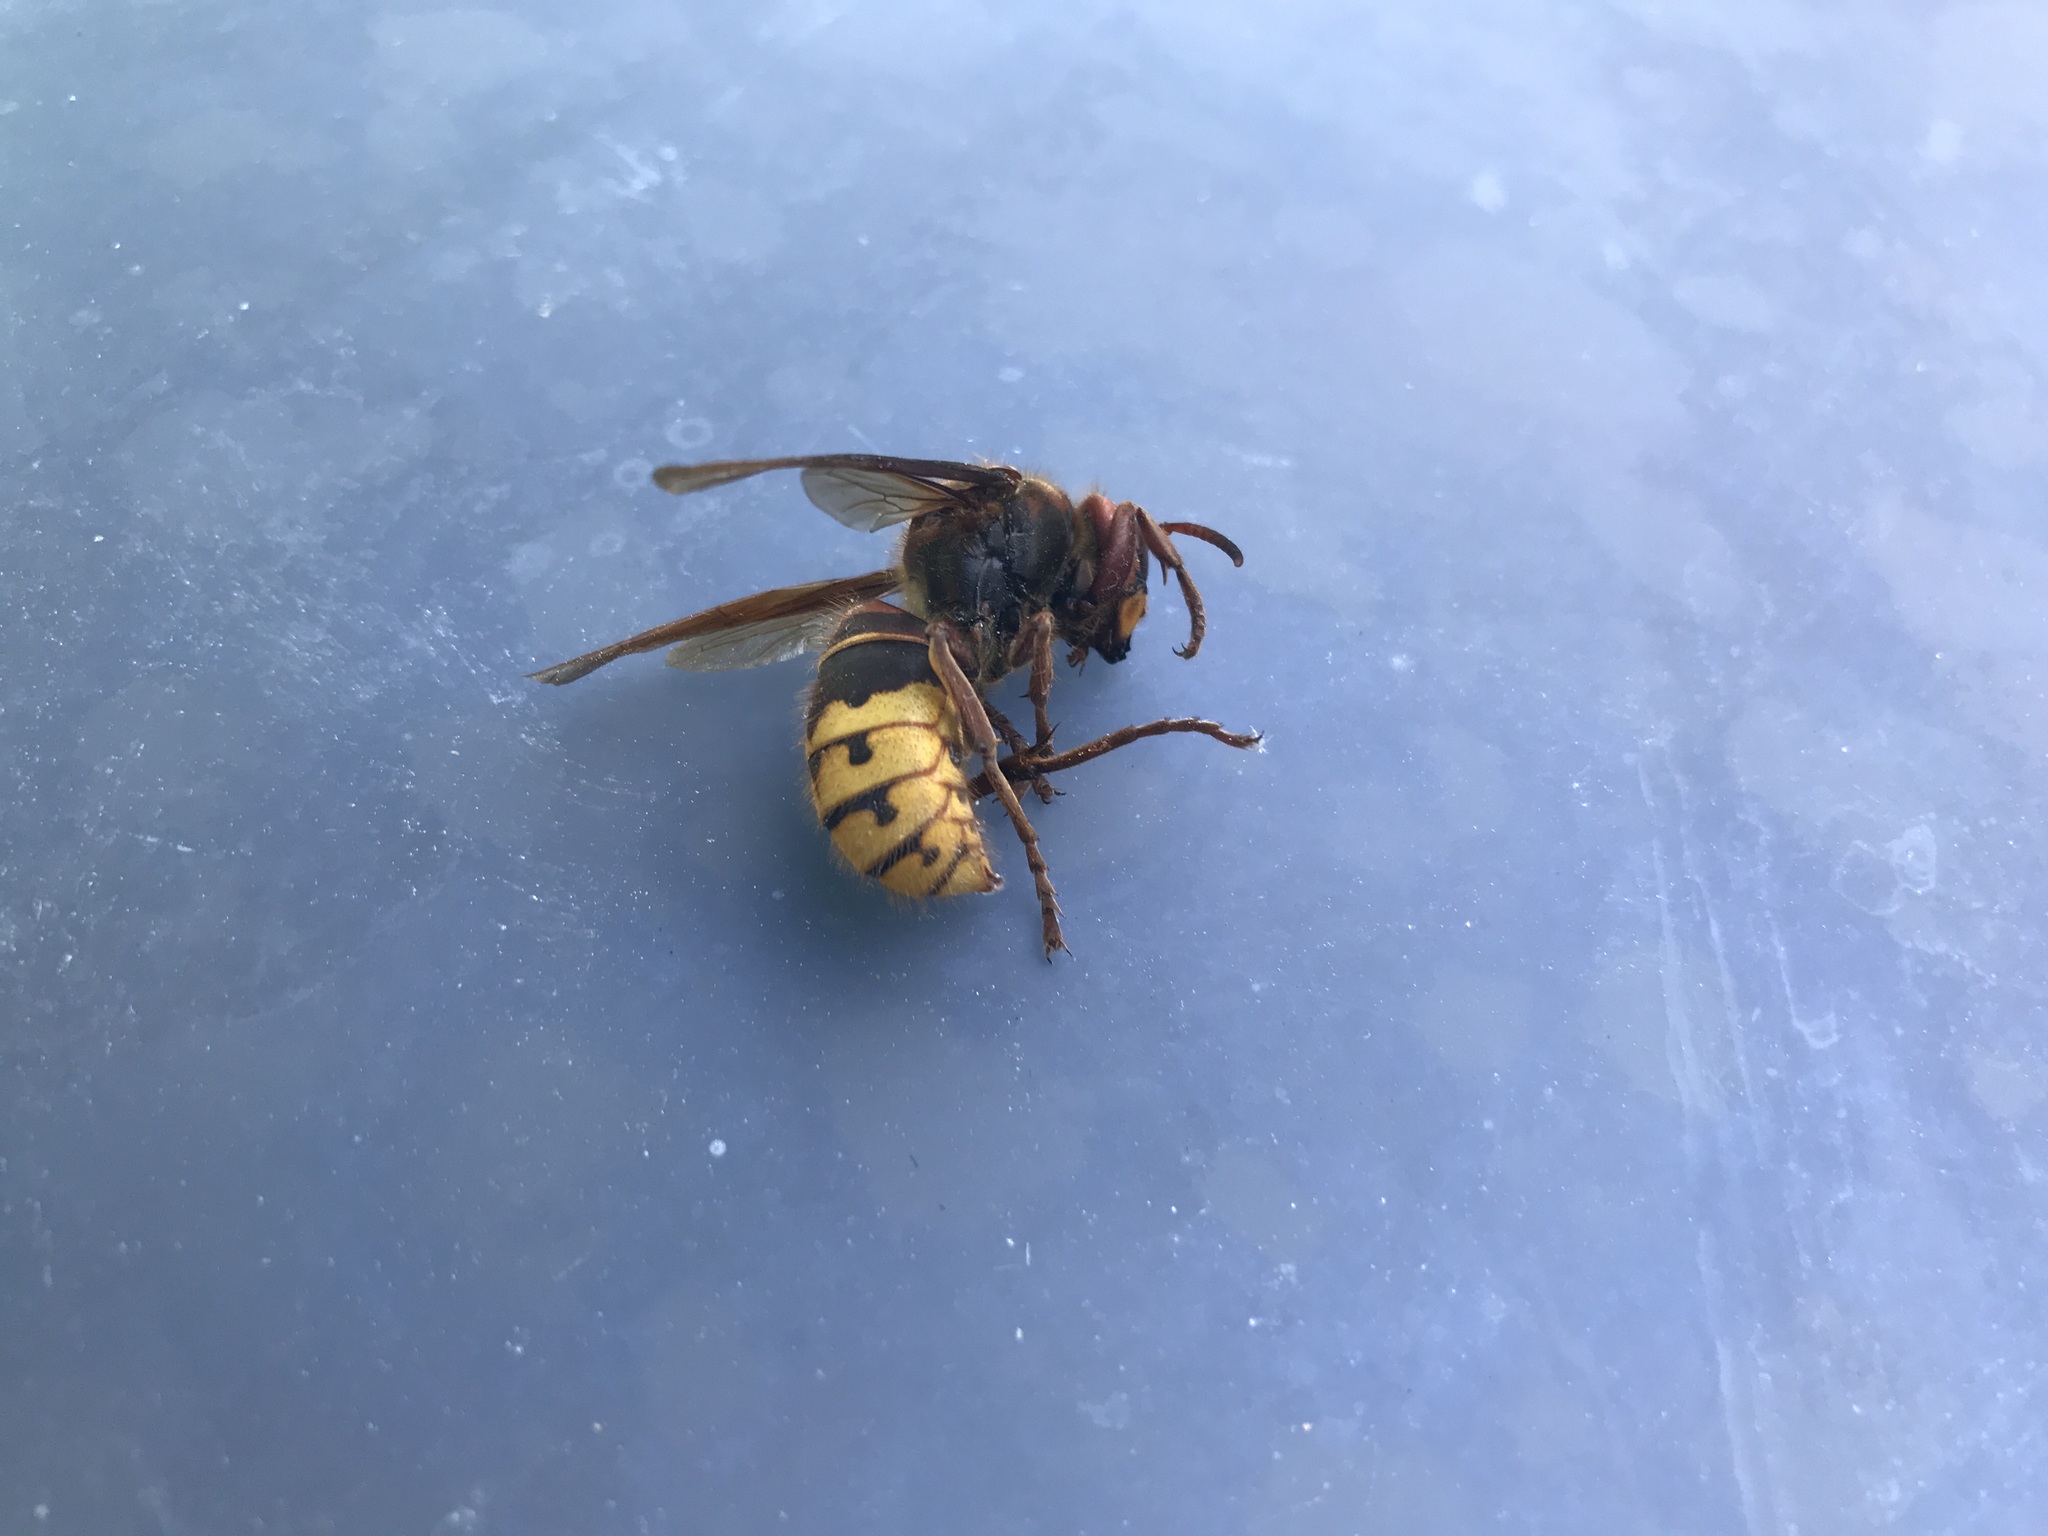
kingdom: Animalia
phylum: Arthropoda
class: Insecta
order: Hymenoptera
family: Vespidae
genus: Vespa
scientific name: Vespa crabro
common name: Hornet
